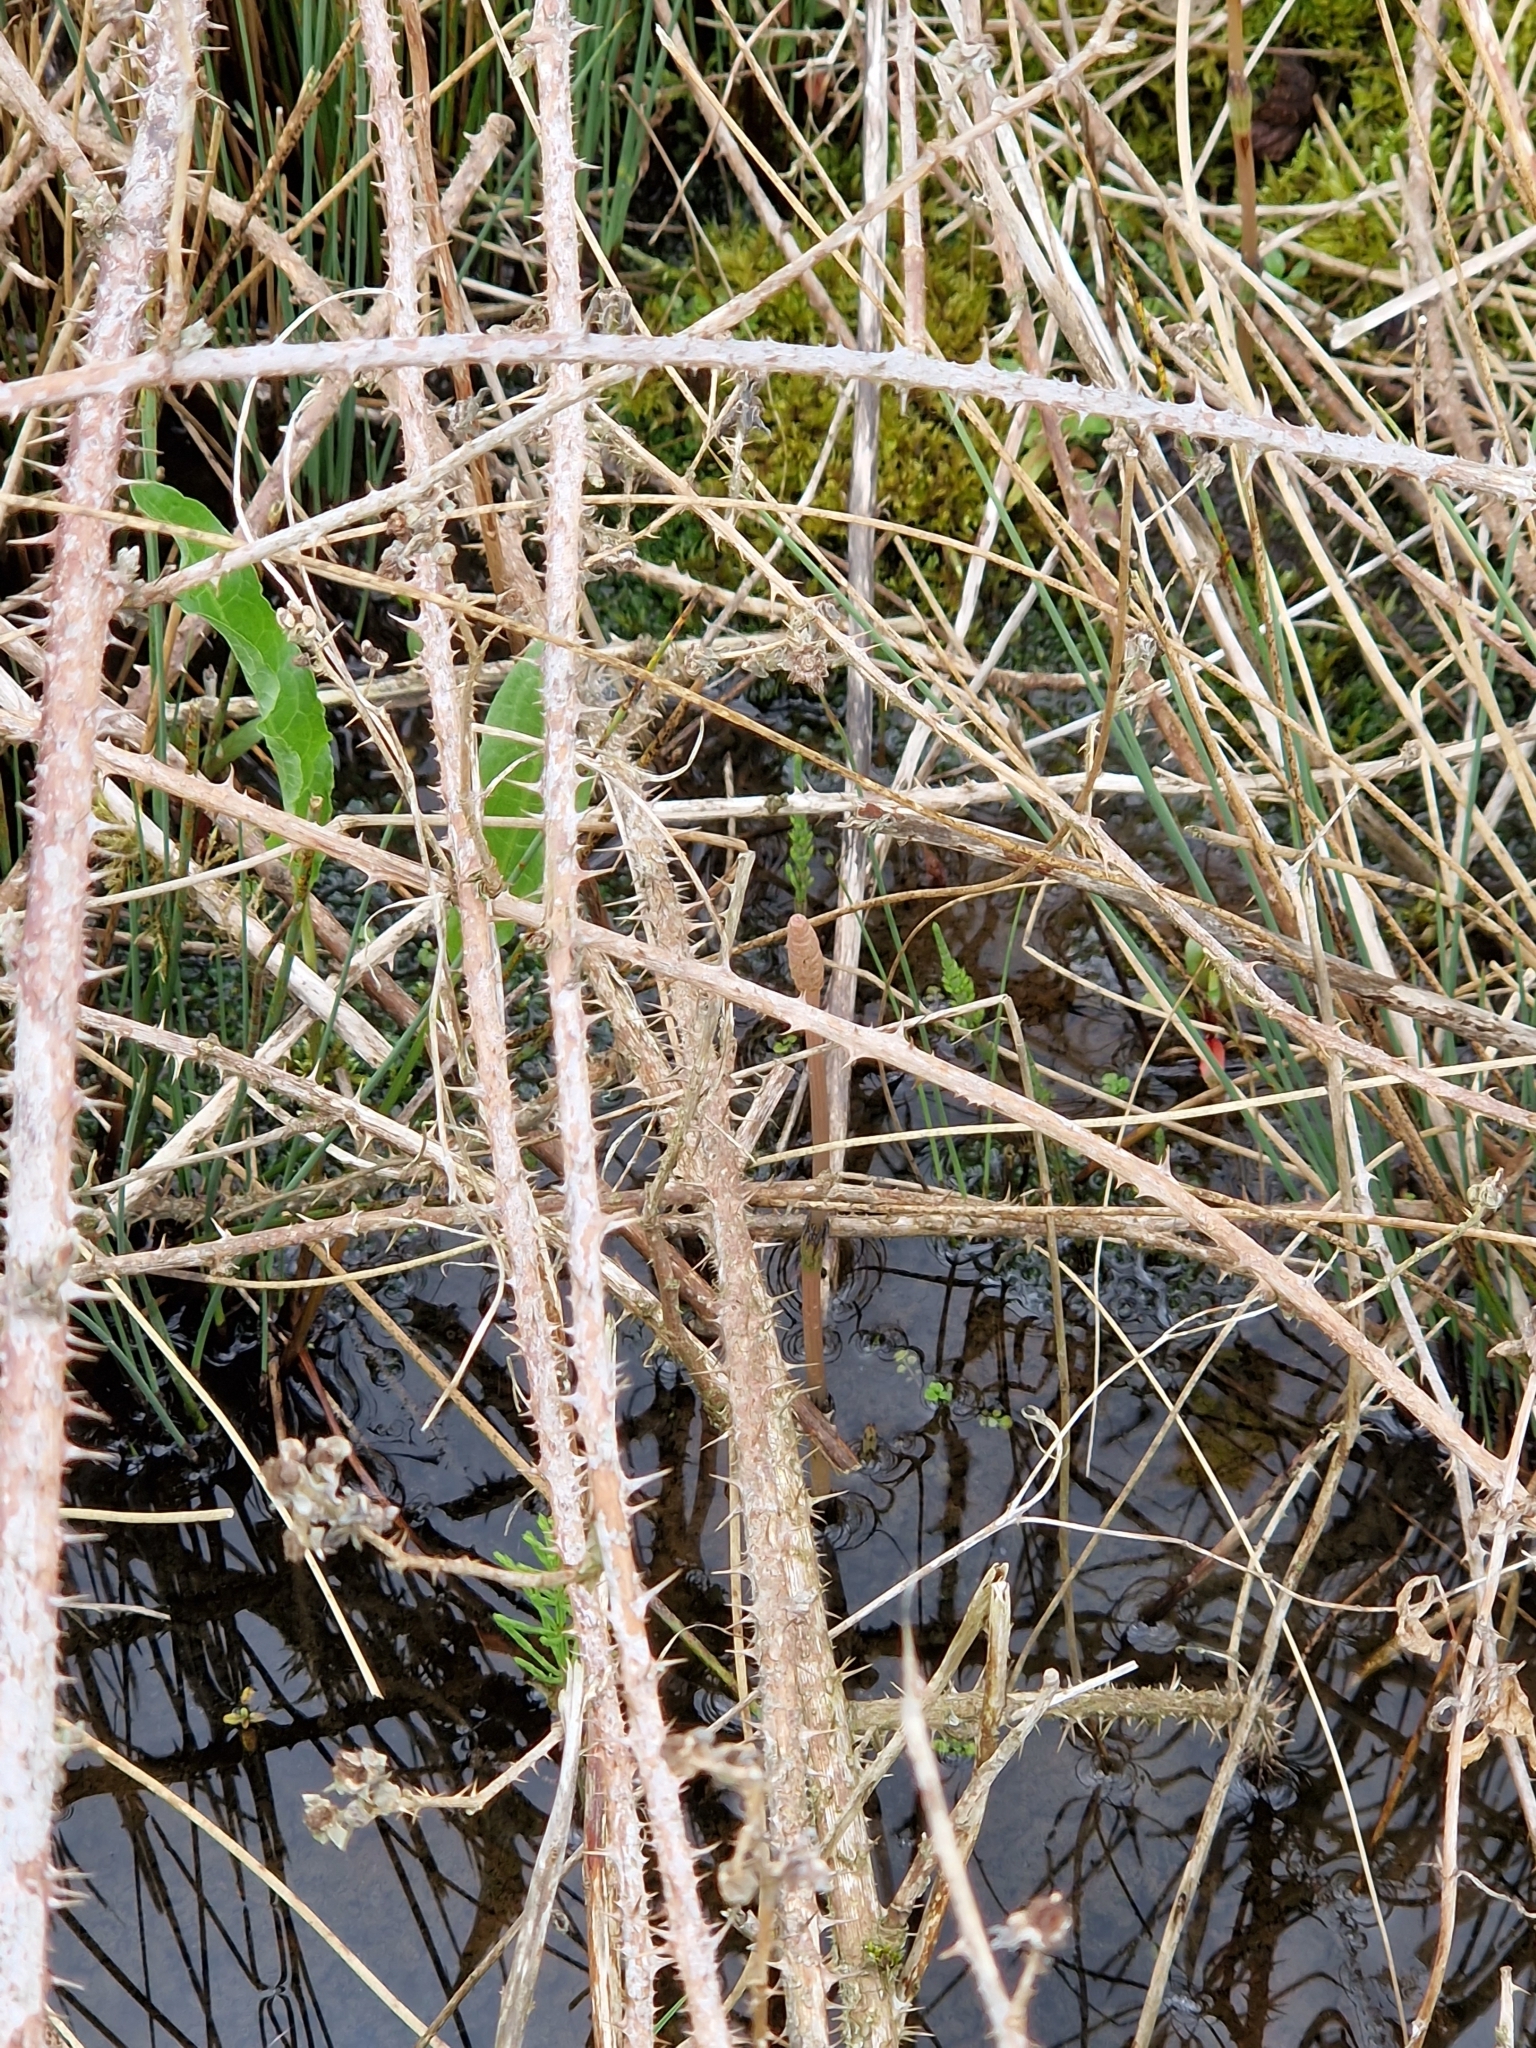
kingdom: Plantae
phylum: Tracheophyta
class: Polypodiopsida
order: Equisetales
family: Equisetaceae
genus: Equisetum
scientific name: Equisetum arvense
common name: Field horsetail
